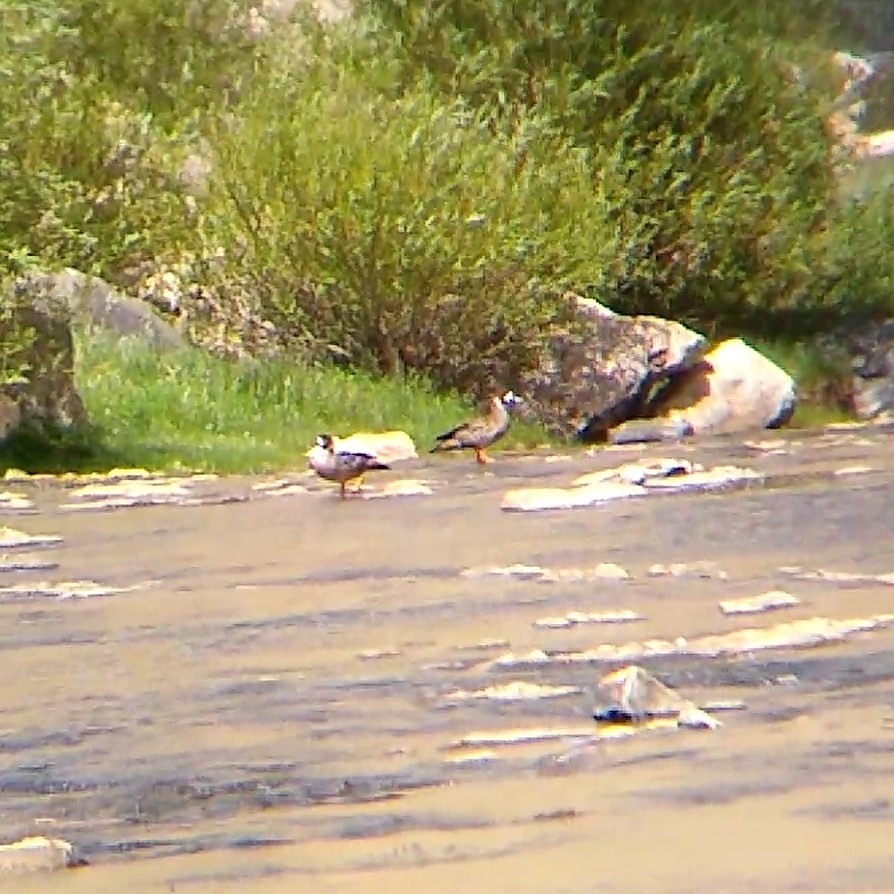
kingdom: Animalia
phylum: Chordata
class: Aves
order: Anseriformes
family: Anatidae
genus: Speculanas
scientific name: Speculanas specularis
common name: Bronze-winged duck
